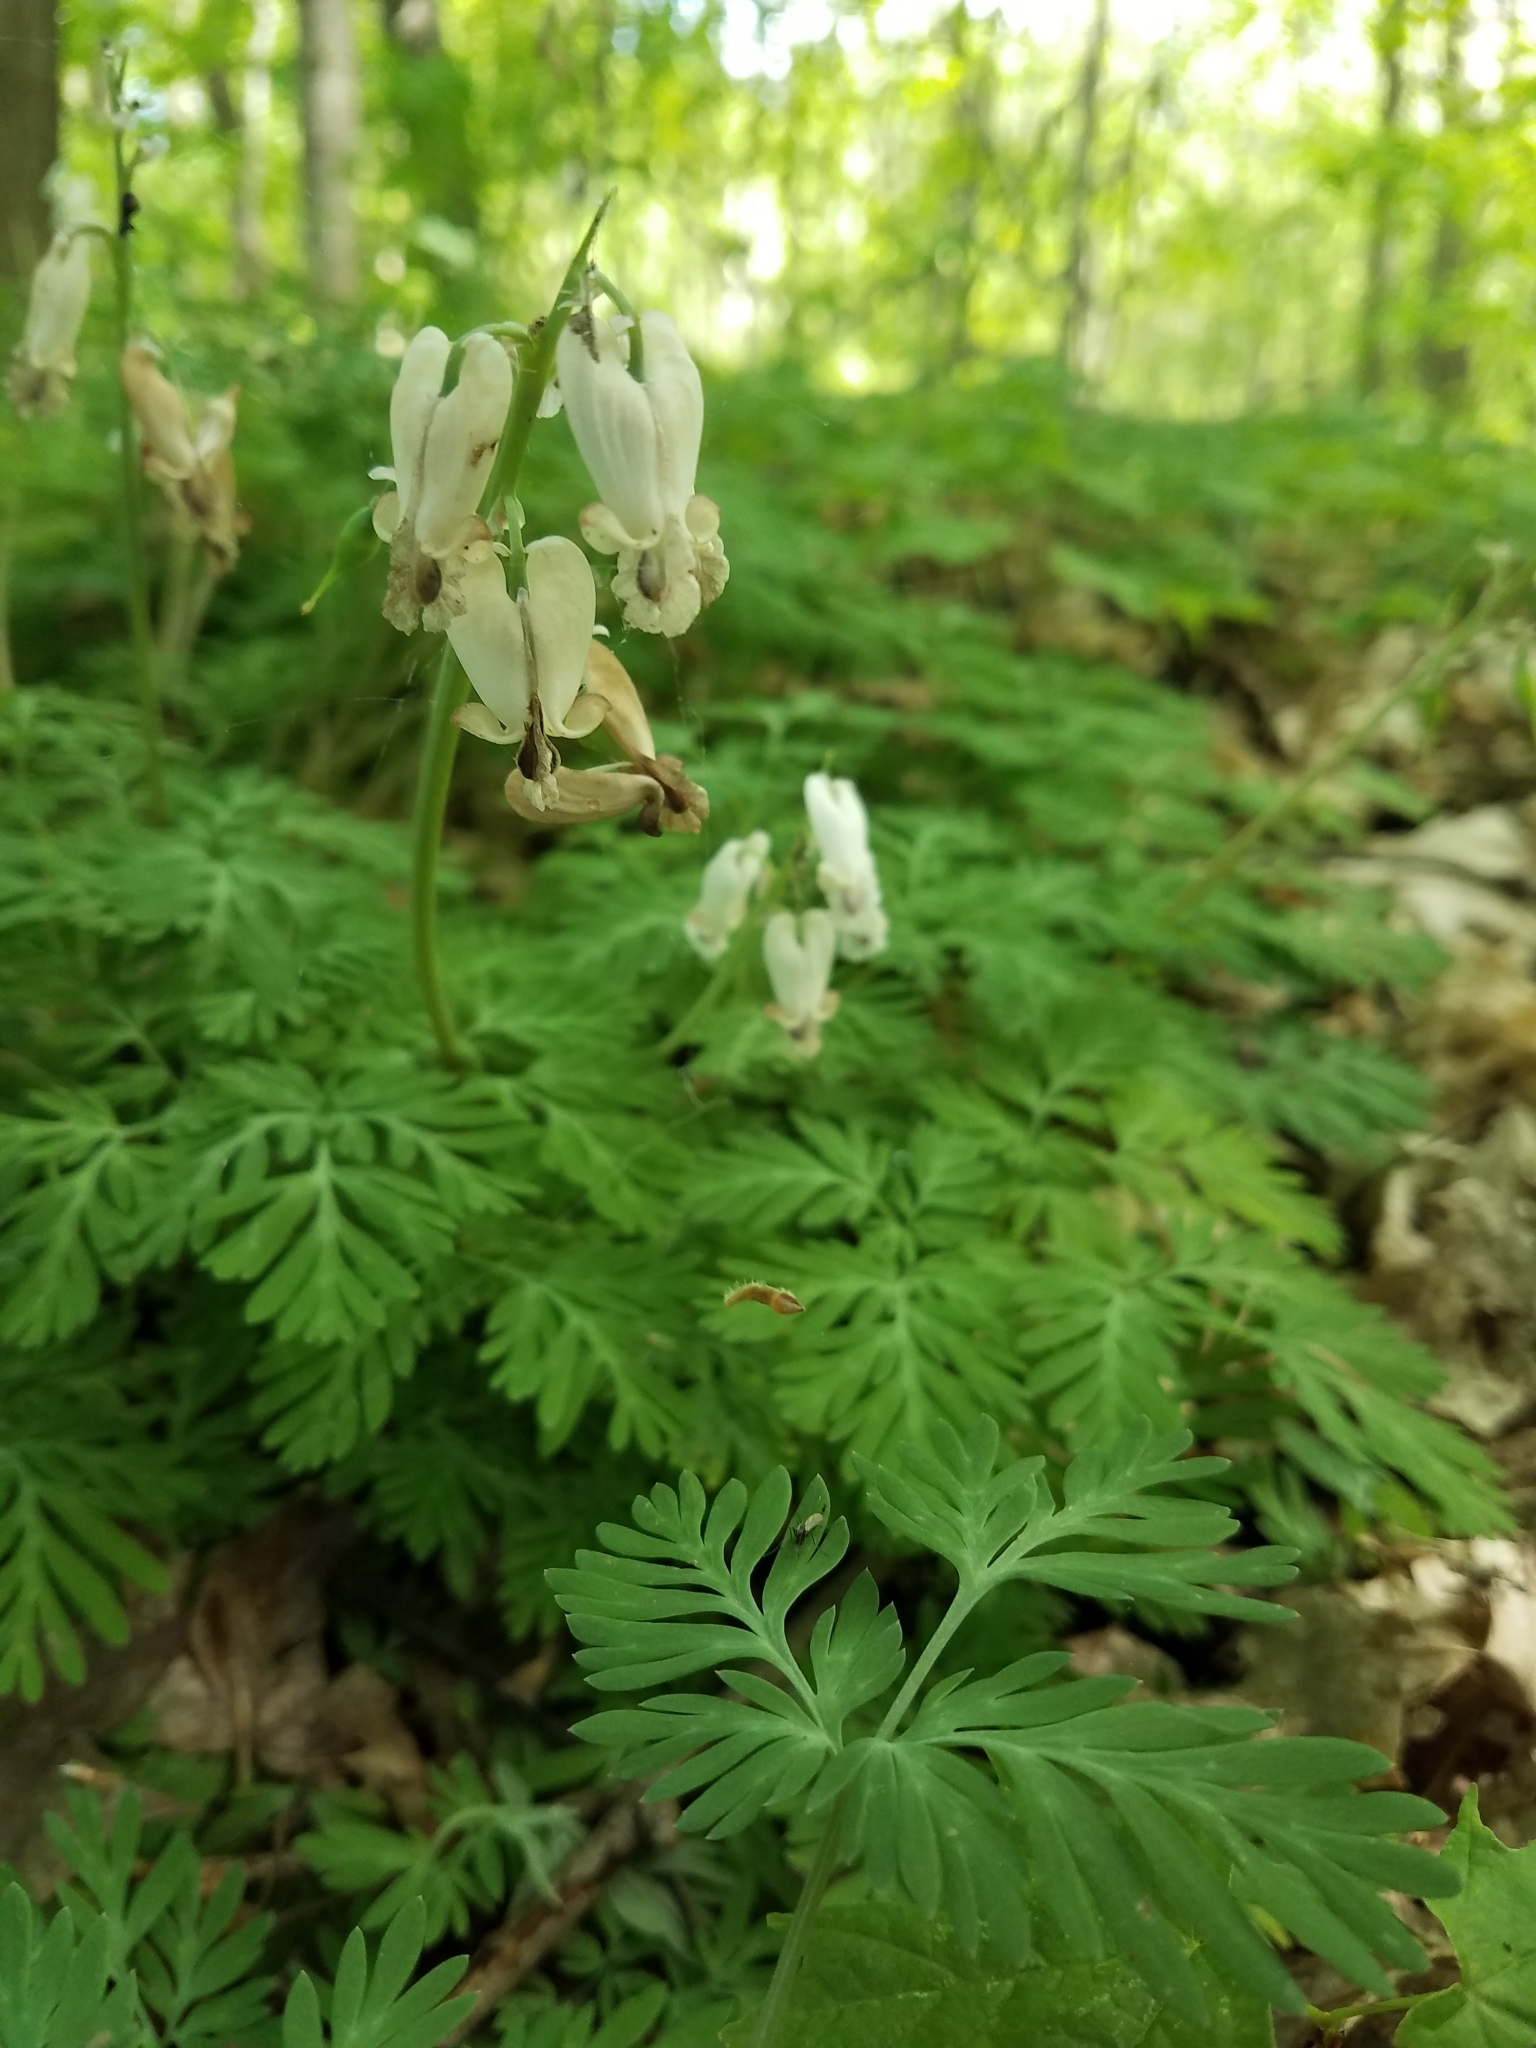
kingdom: Plantae
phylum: Tracheophyta
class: Magnoliopsida
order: Ranunculales
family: Papaveraceae
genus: Dicentra
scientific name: Dicentra canadensis
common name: Squirrel-corn
